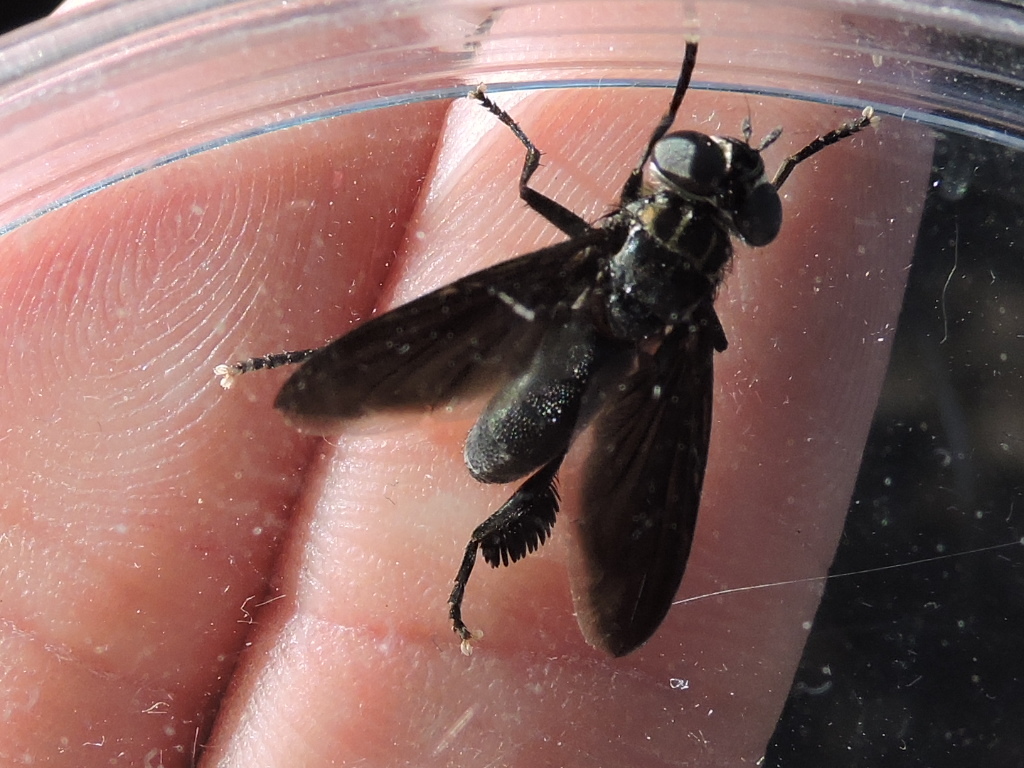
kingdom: Animalia
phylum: Arthropoda
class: Insecta
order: Diptera
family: Tachinidae
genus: Trichopoda
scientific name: Trichopoda lanipes
